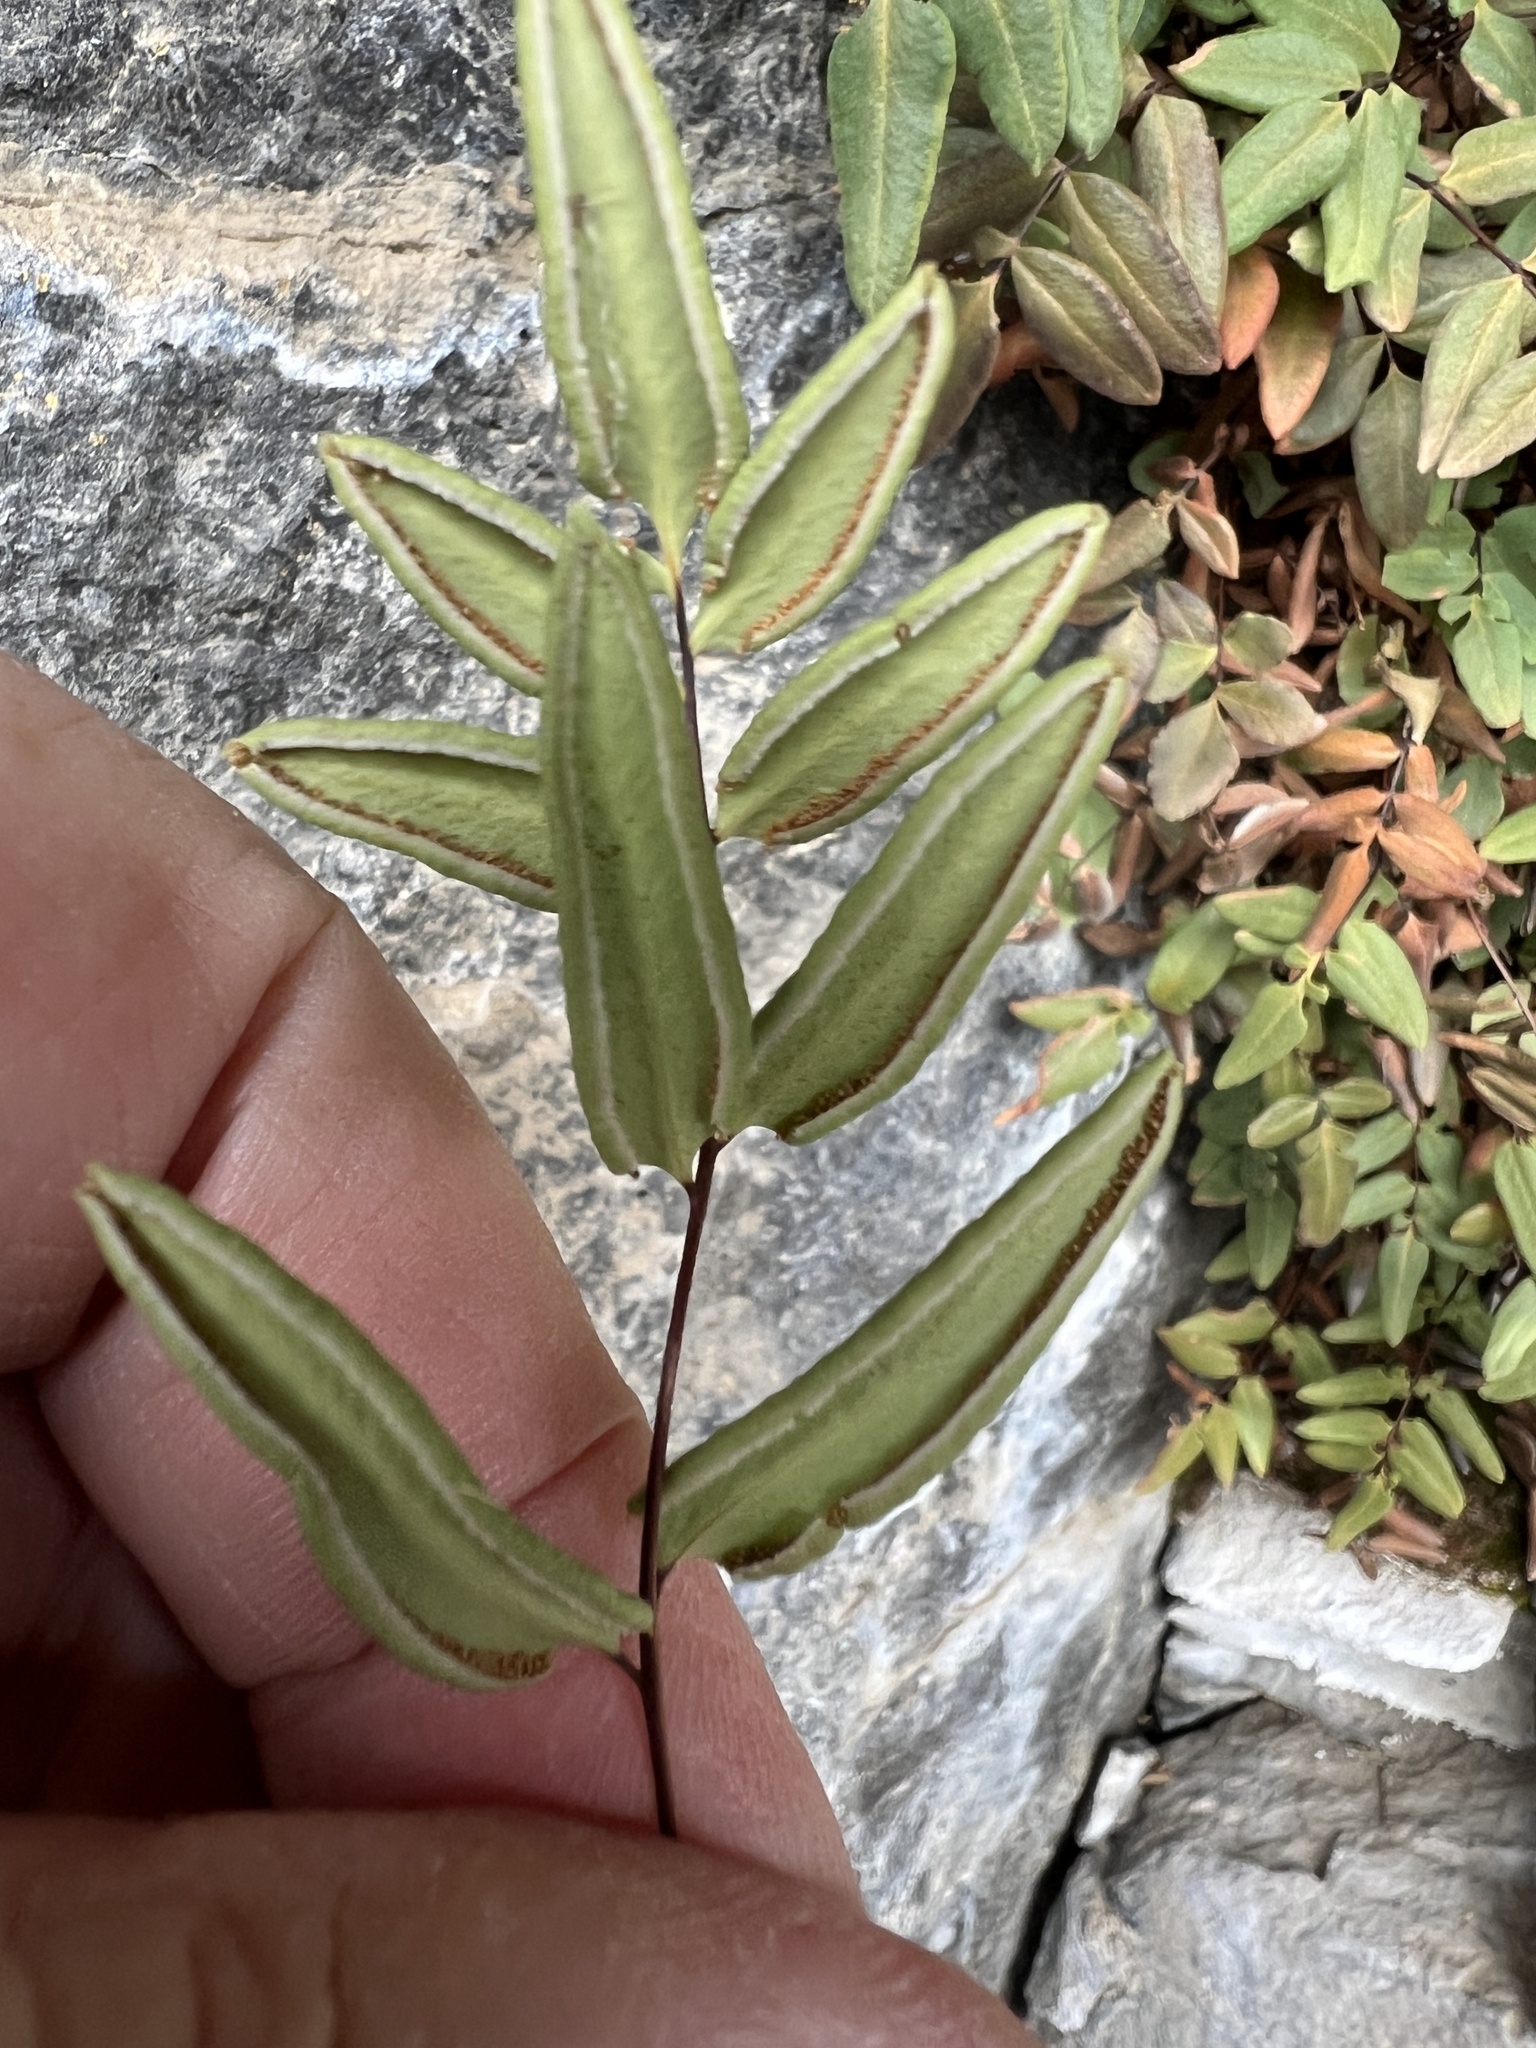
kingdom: Plantae
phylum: Tracheophyta
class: Polypodiopsida
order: Polypodiales
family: Pteridaceae
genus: Pellaea
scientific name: Pellaea glabella
